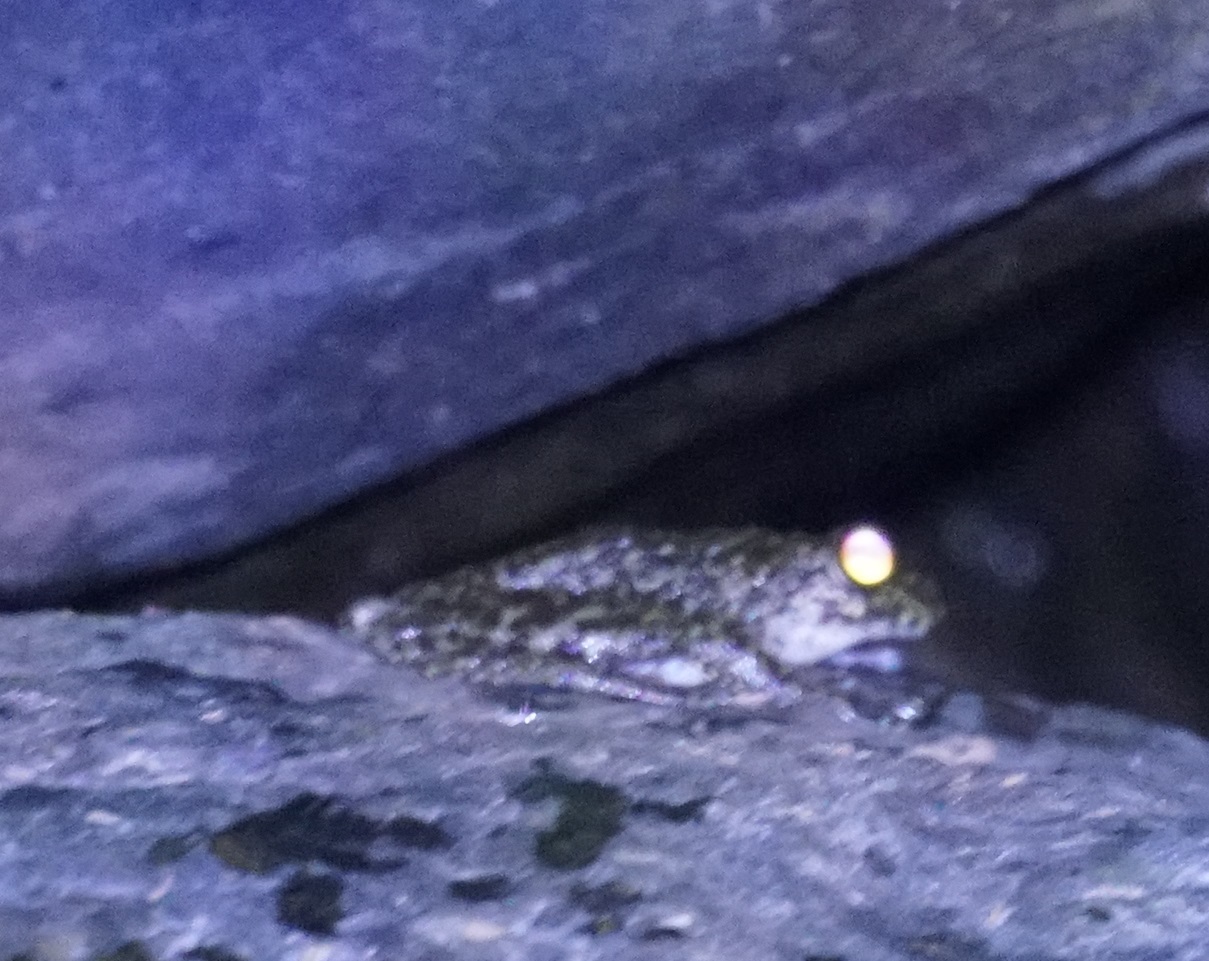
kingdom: Animalia
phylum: Chordata
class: Amphibia
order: Anura
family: Pelodryadidae
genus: Ranoidea
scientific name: Ranoidea nannotis
